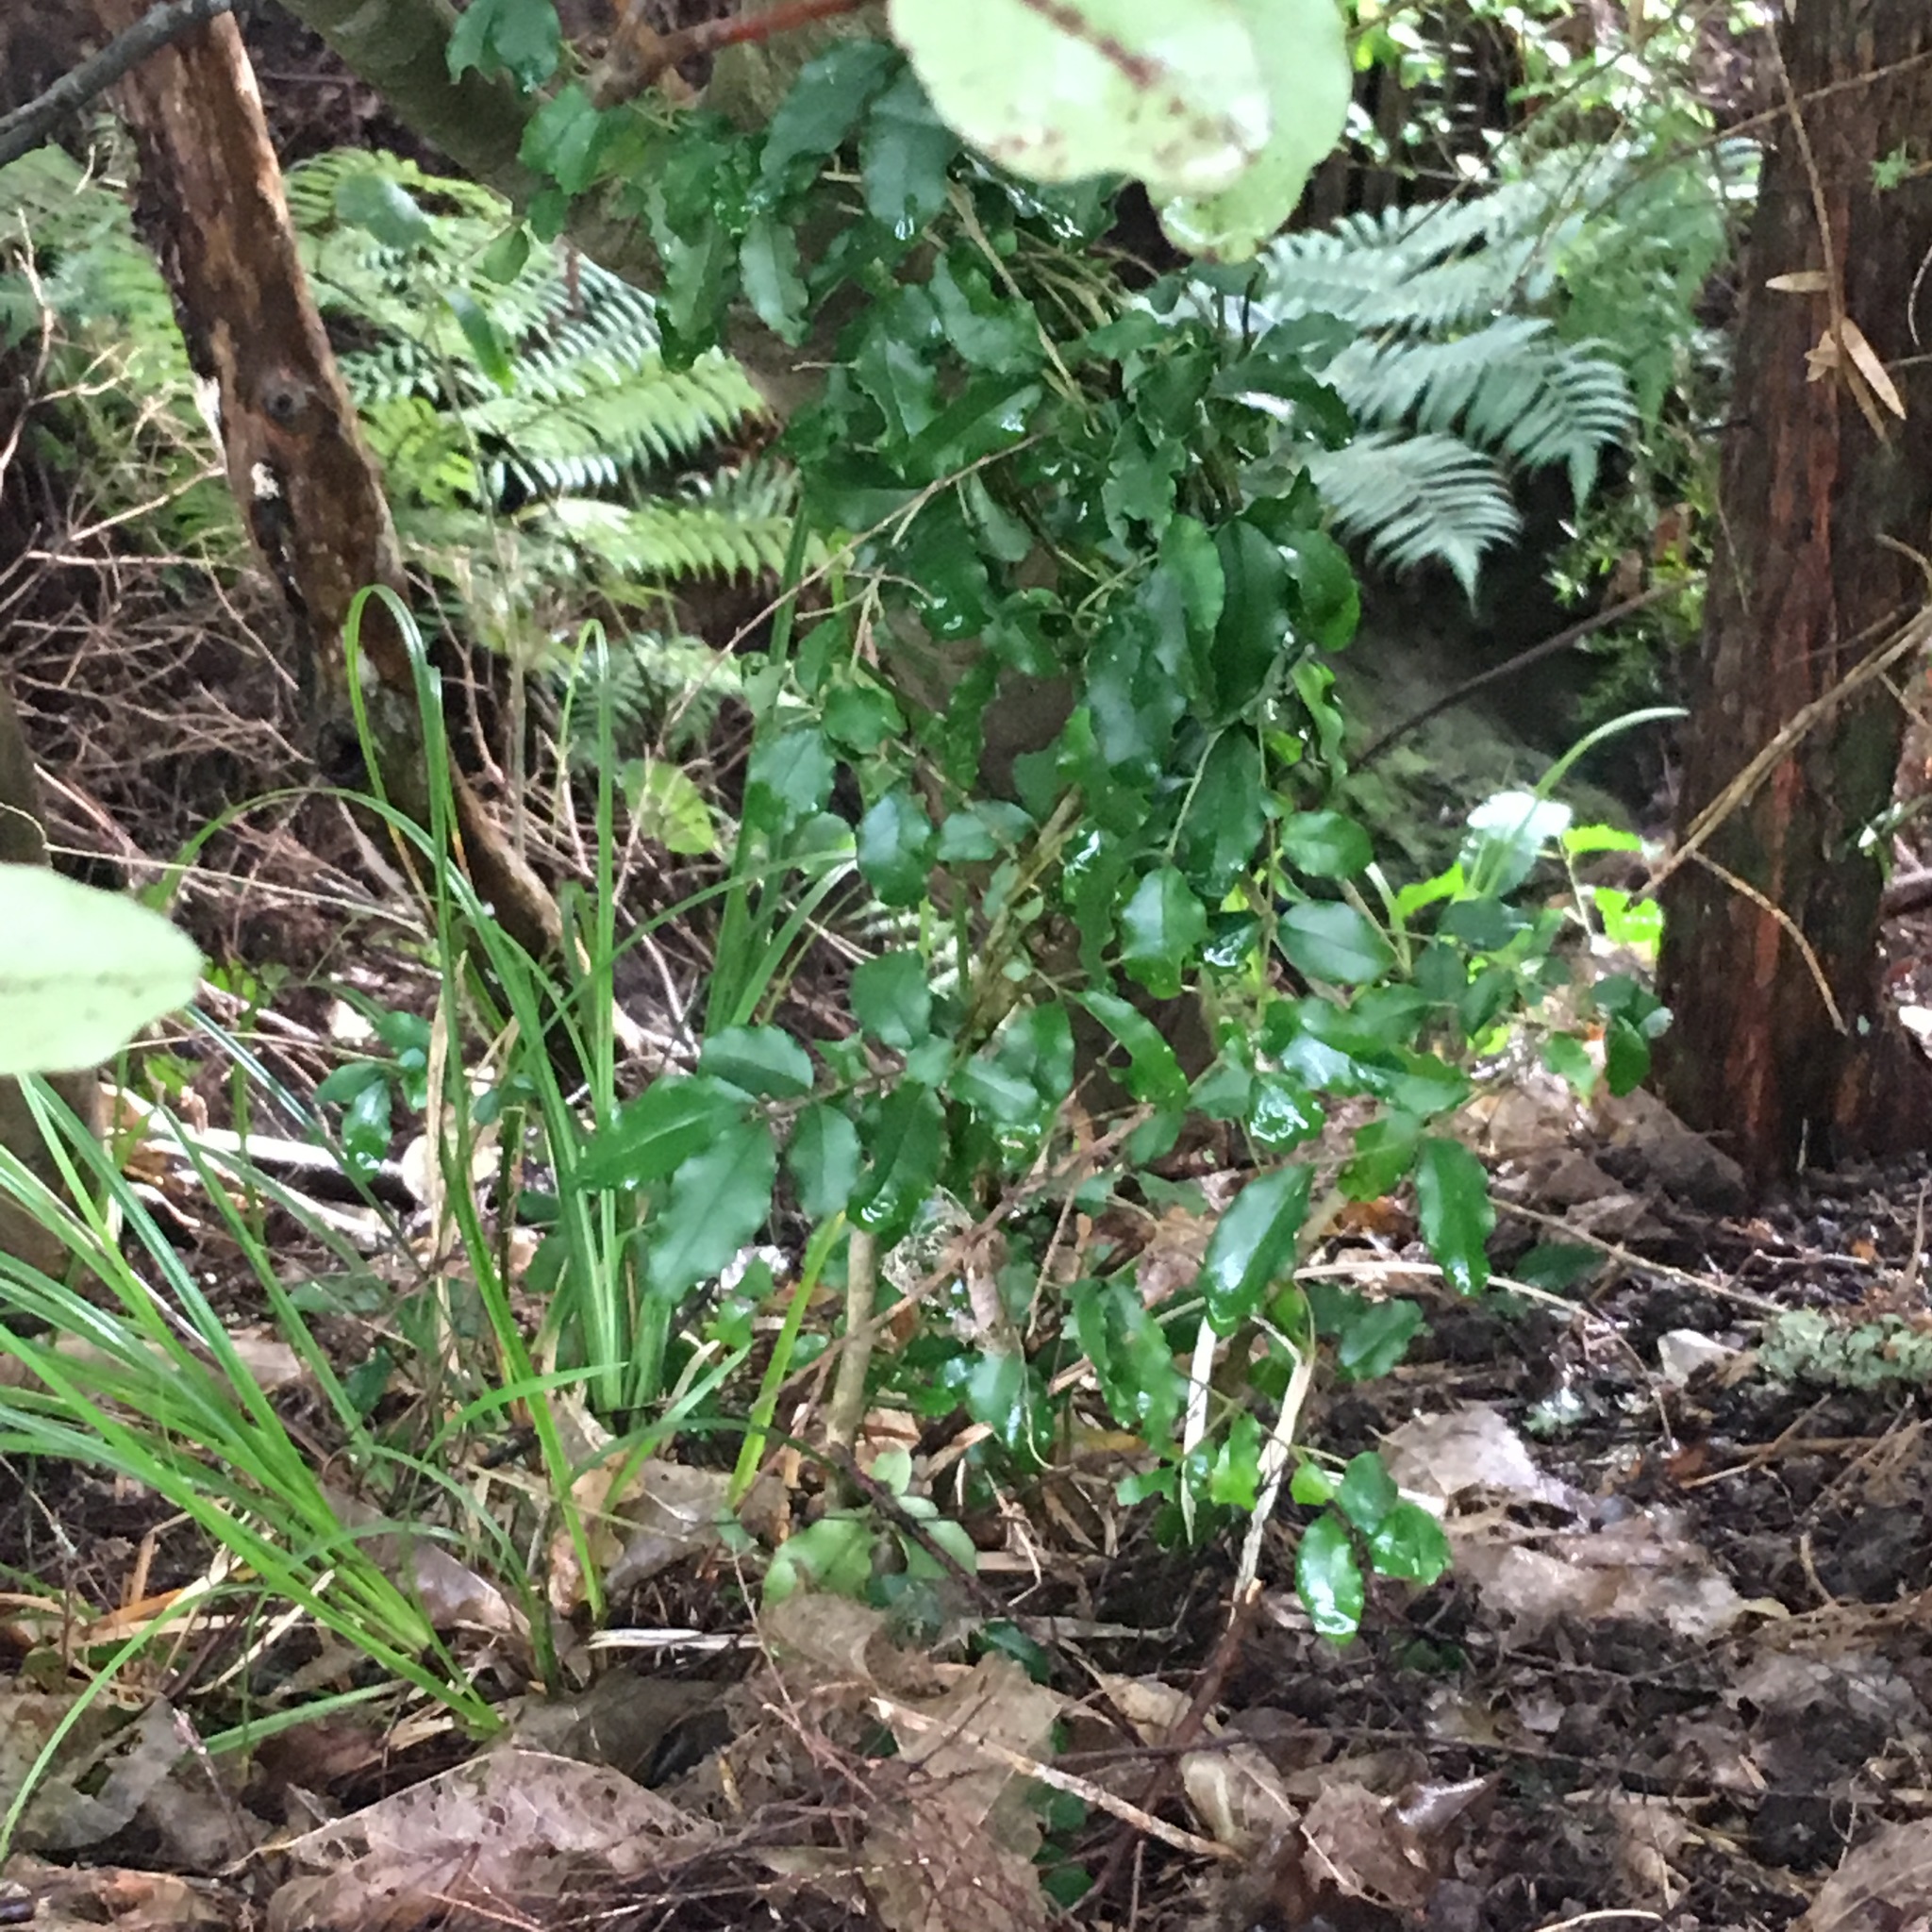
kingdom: Plantae
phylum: Tracheophyta
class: Magnoliopsida
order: Lamiales
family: Oleaceae
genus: Ligustrum
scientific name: Ligustrum sinense
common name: Chinese privet
